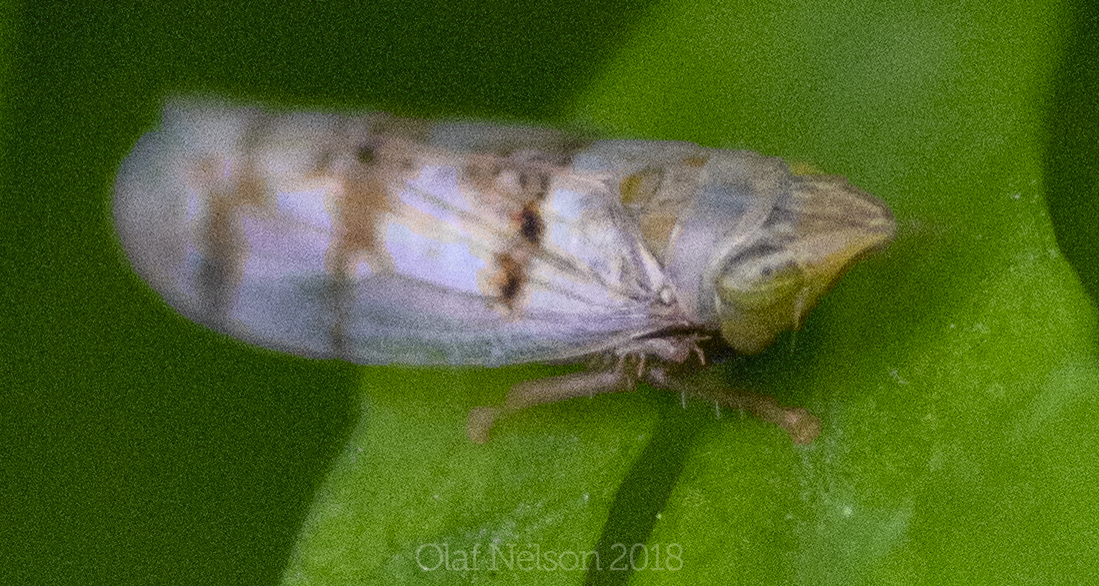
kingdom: Animalia
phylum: Arthropoda
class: Insecta
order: Hemiptera
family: Cicadellidae
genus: Japananus
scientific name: Japananus hyalinus
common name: The japanese maple leafhopper
